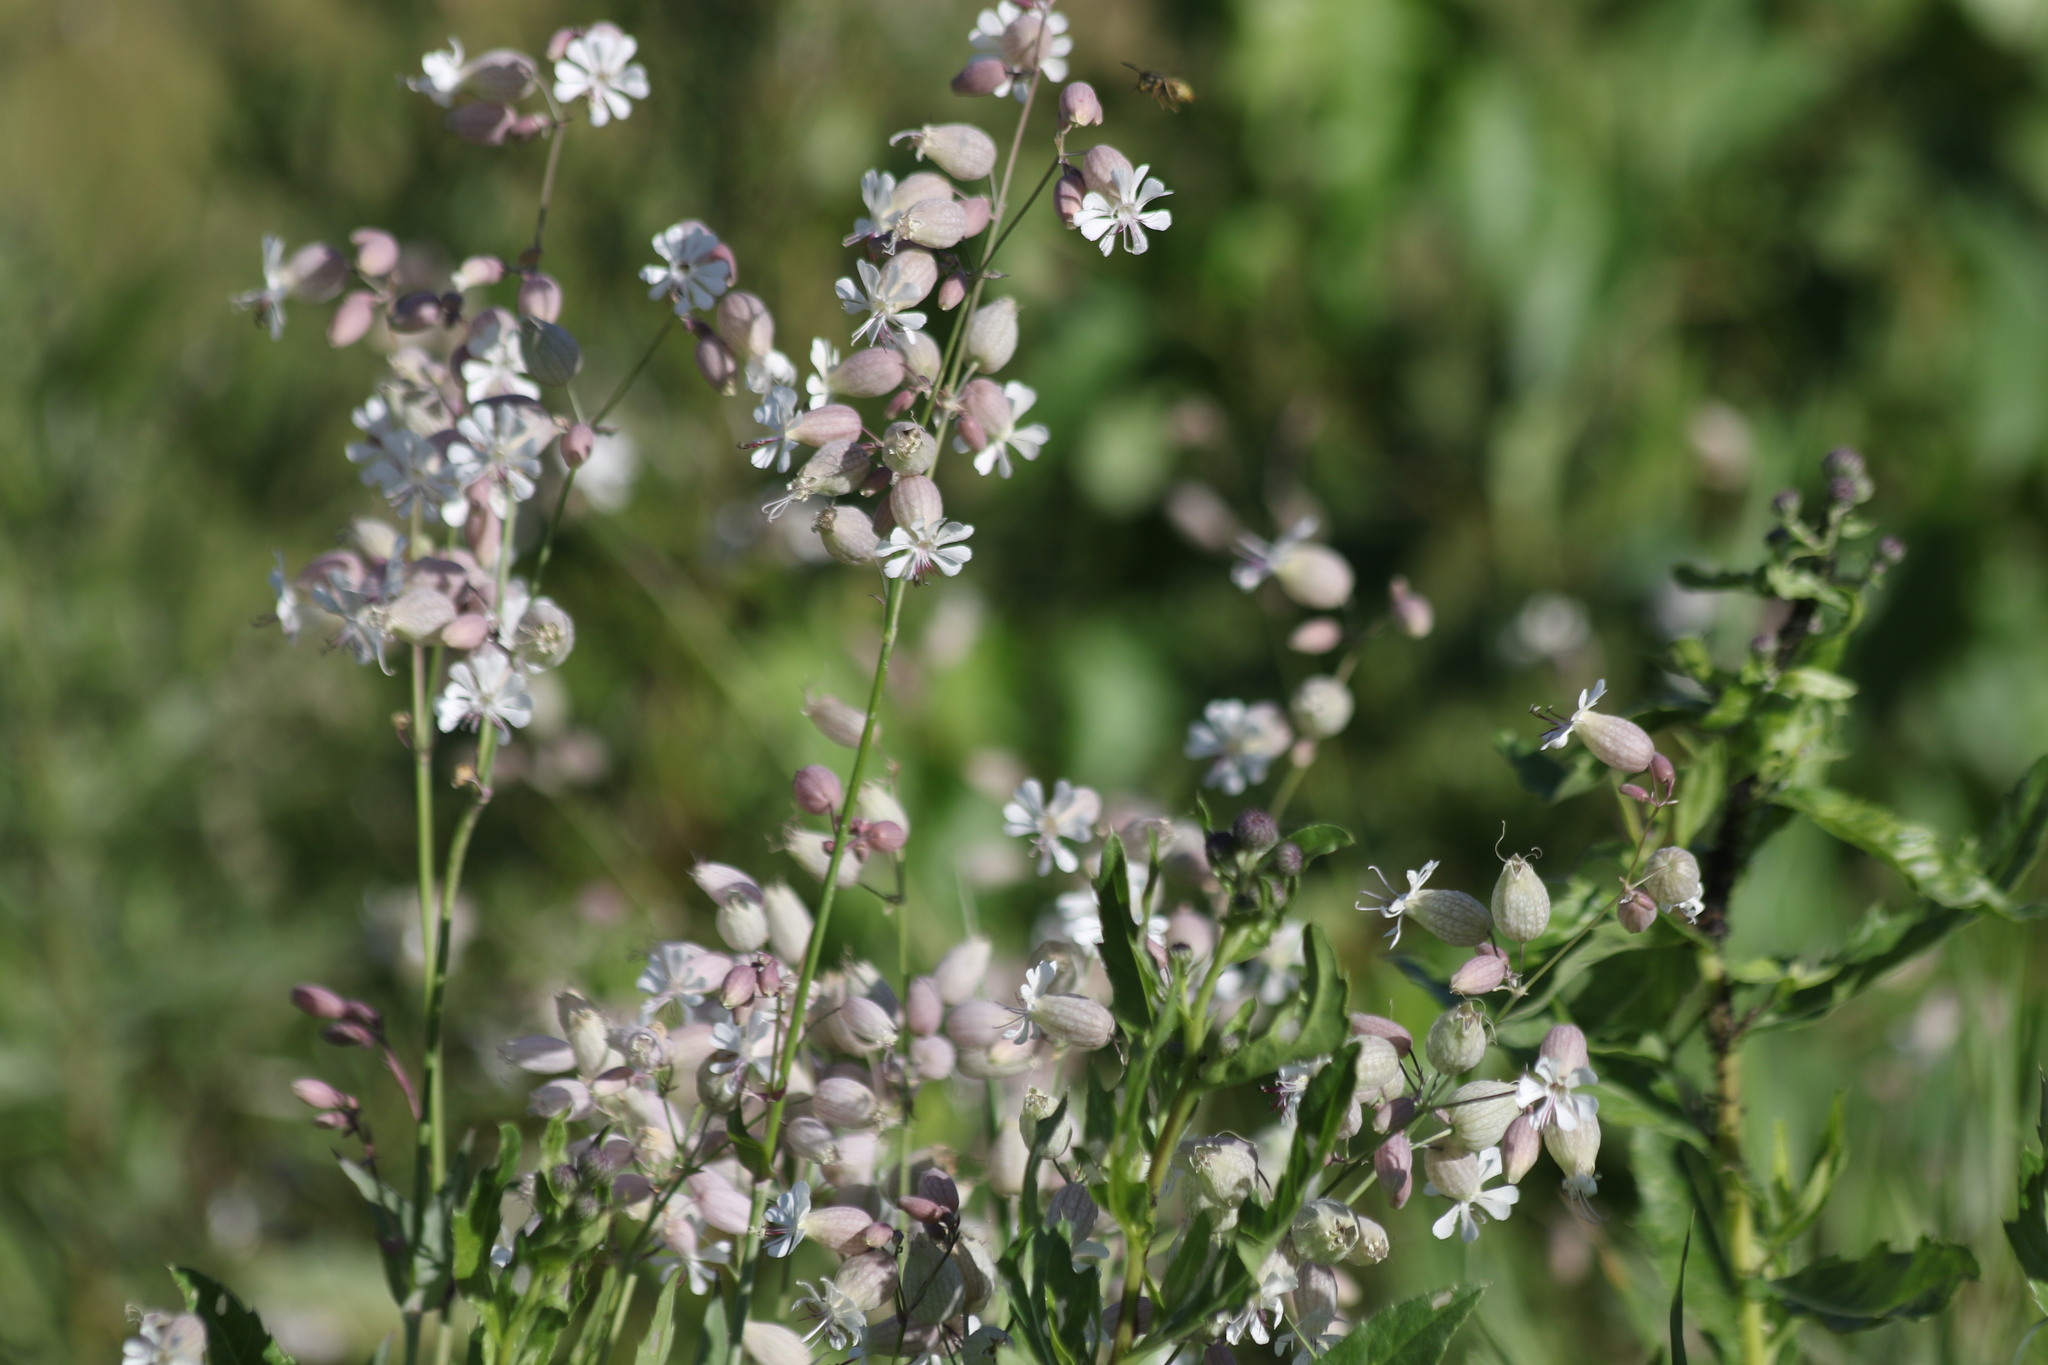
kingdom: Plantae
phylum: Tracheophyta
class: Magnoliopsida
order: Caryophyllales
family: Caryophyllaceae
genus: Silene
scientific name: Silene vulgaris
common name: Bladder campion
